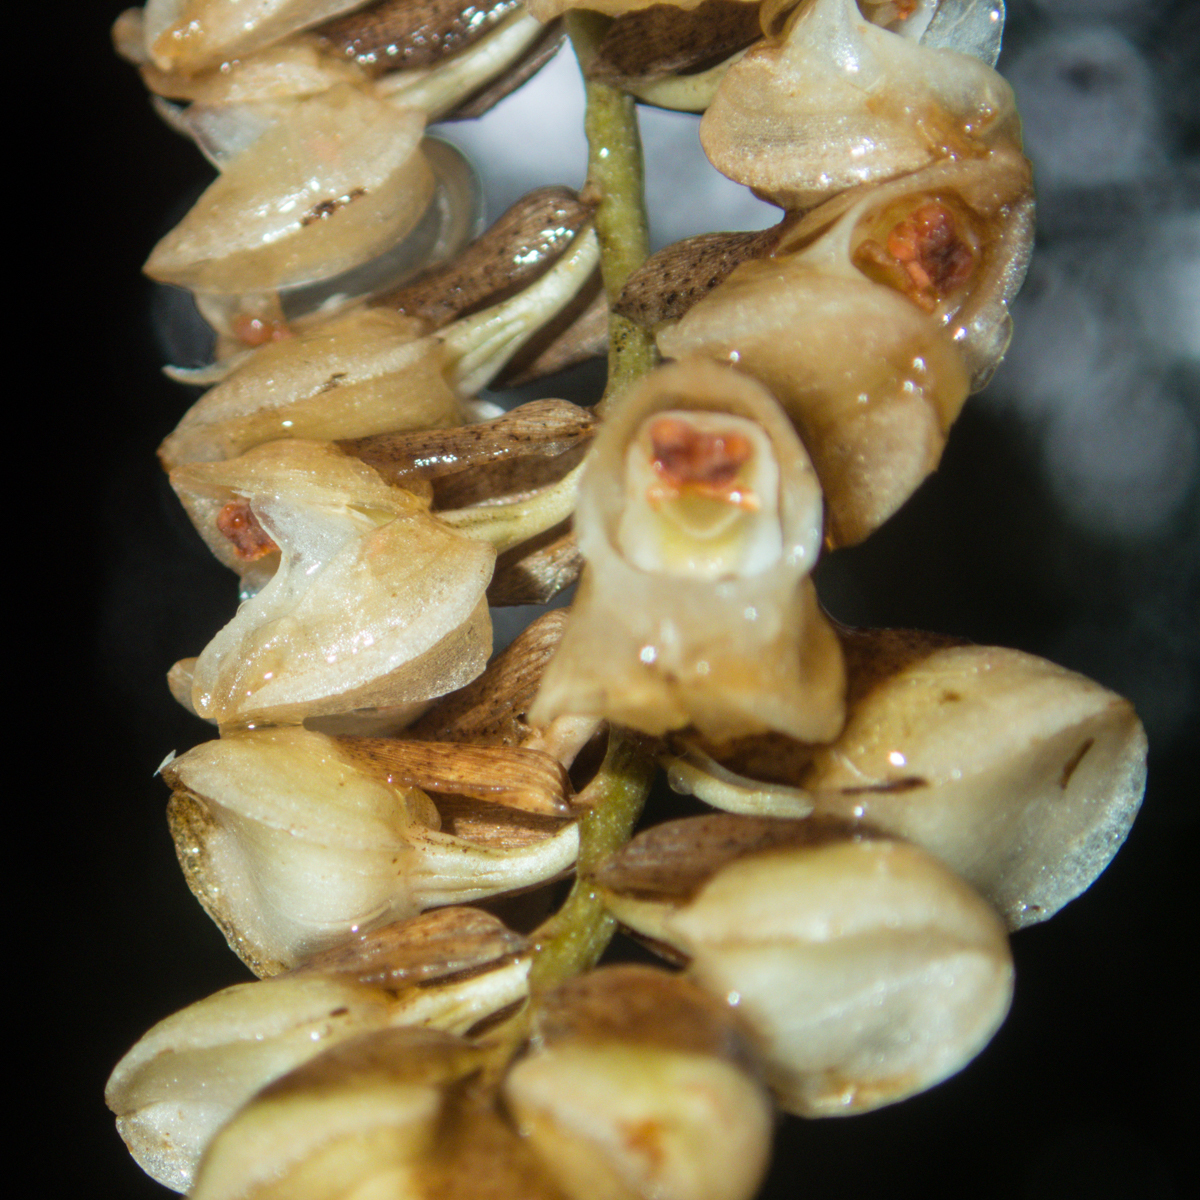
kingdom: Plantae
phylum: Tracheophyta
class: Liliopsida
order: Asparagales
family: Orchidaceae
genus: Pholidota
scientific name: Pholidota imbricata
